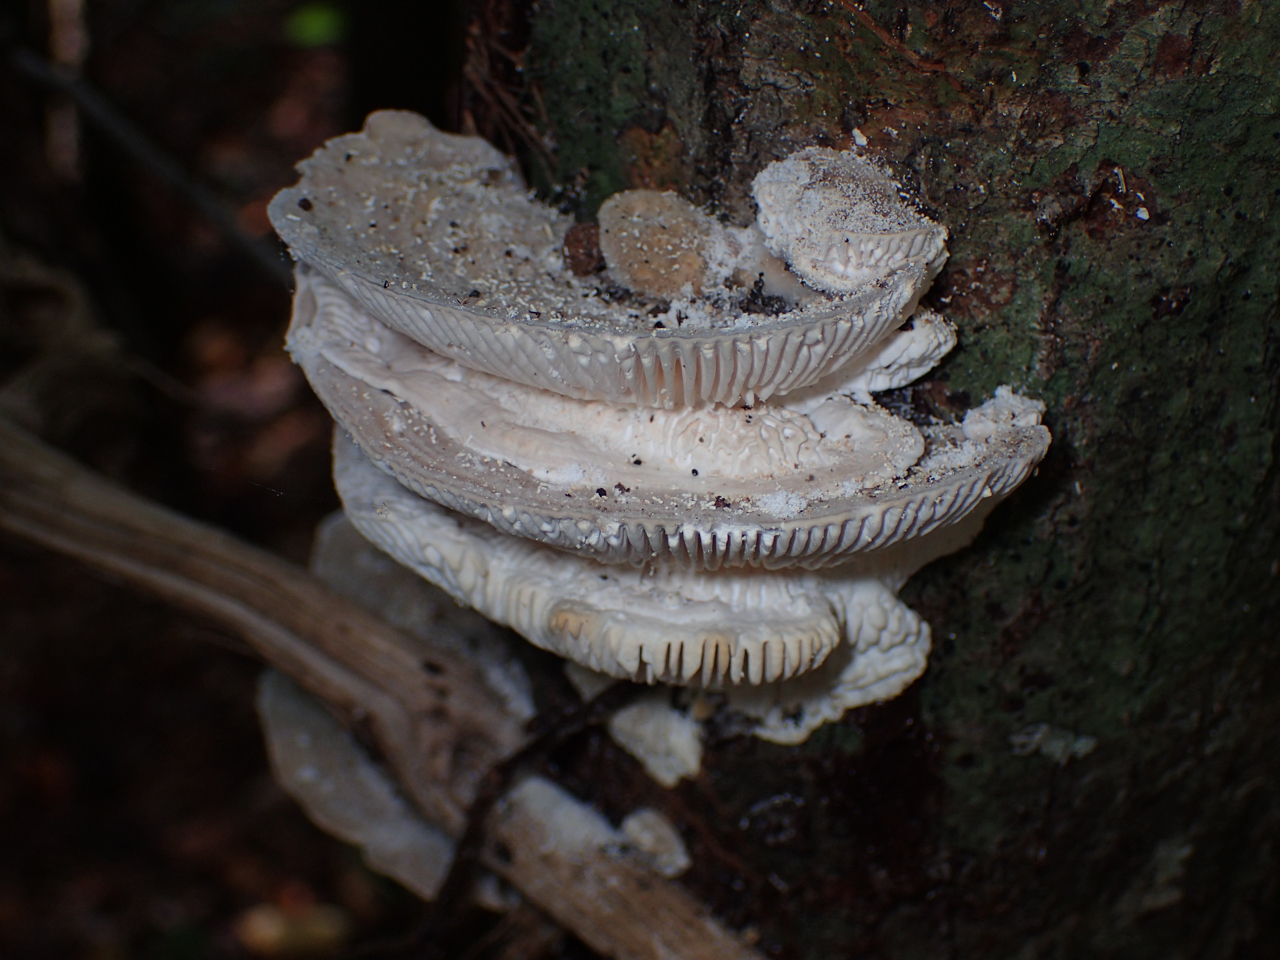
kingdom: Fungi
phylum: Basidiomycota
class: Agaricomycetes
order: Polyporales
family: Polyporaceae
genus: Lenzites
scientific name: Lenzites betulinus
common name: Birch mazegill
